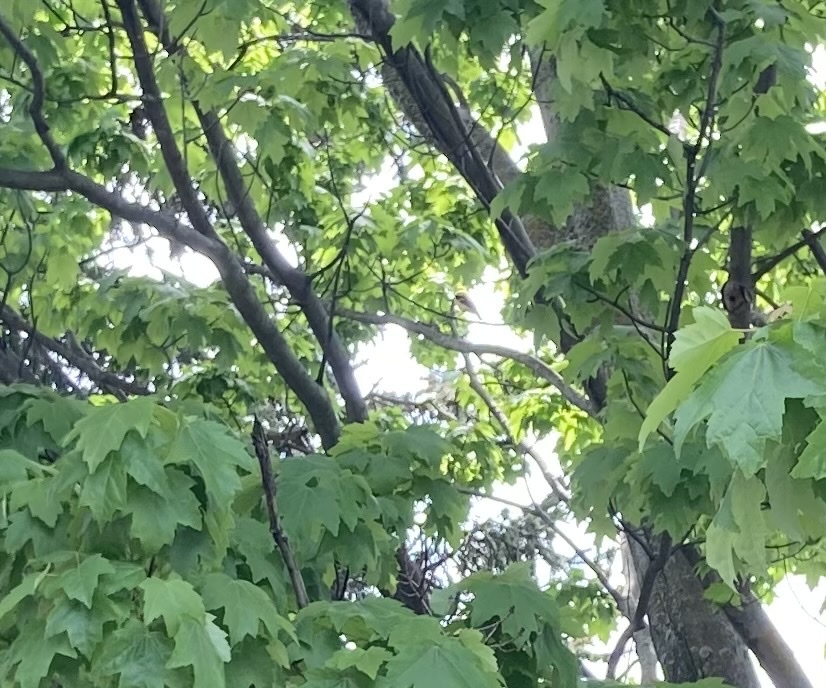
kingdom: Animalia
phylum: Chordata
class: Aves
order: Passeriformes
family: Fringillidae
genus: Spinus
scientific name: Spinus tristis
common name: American goldfinch
